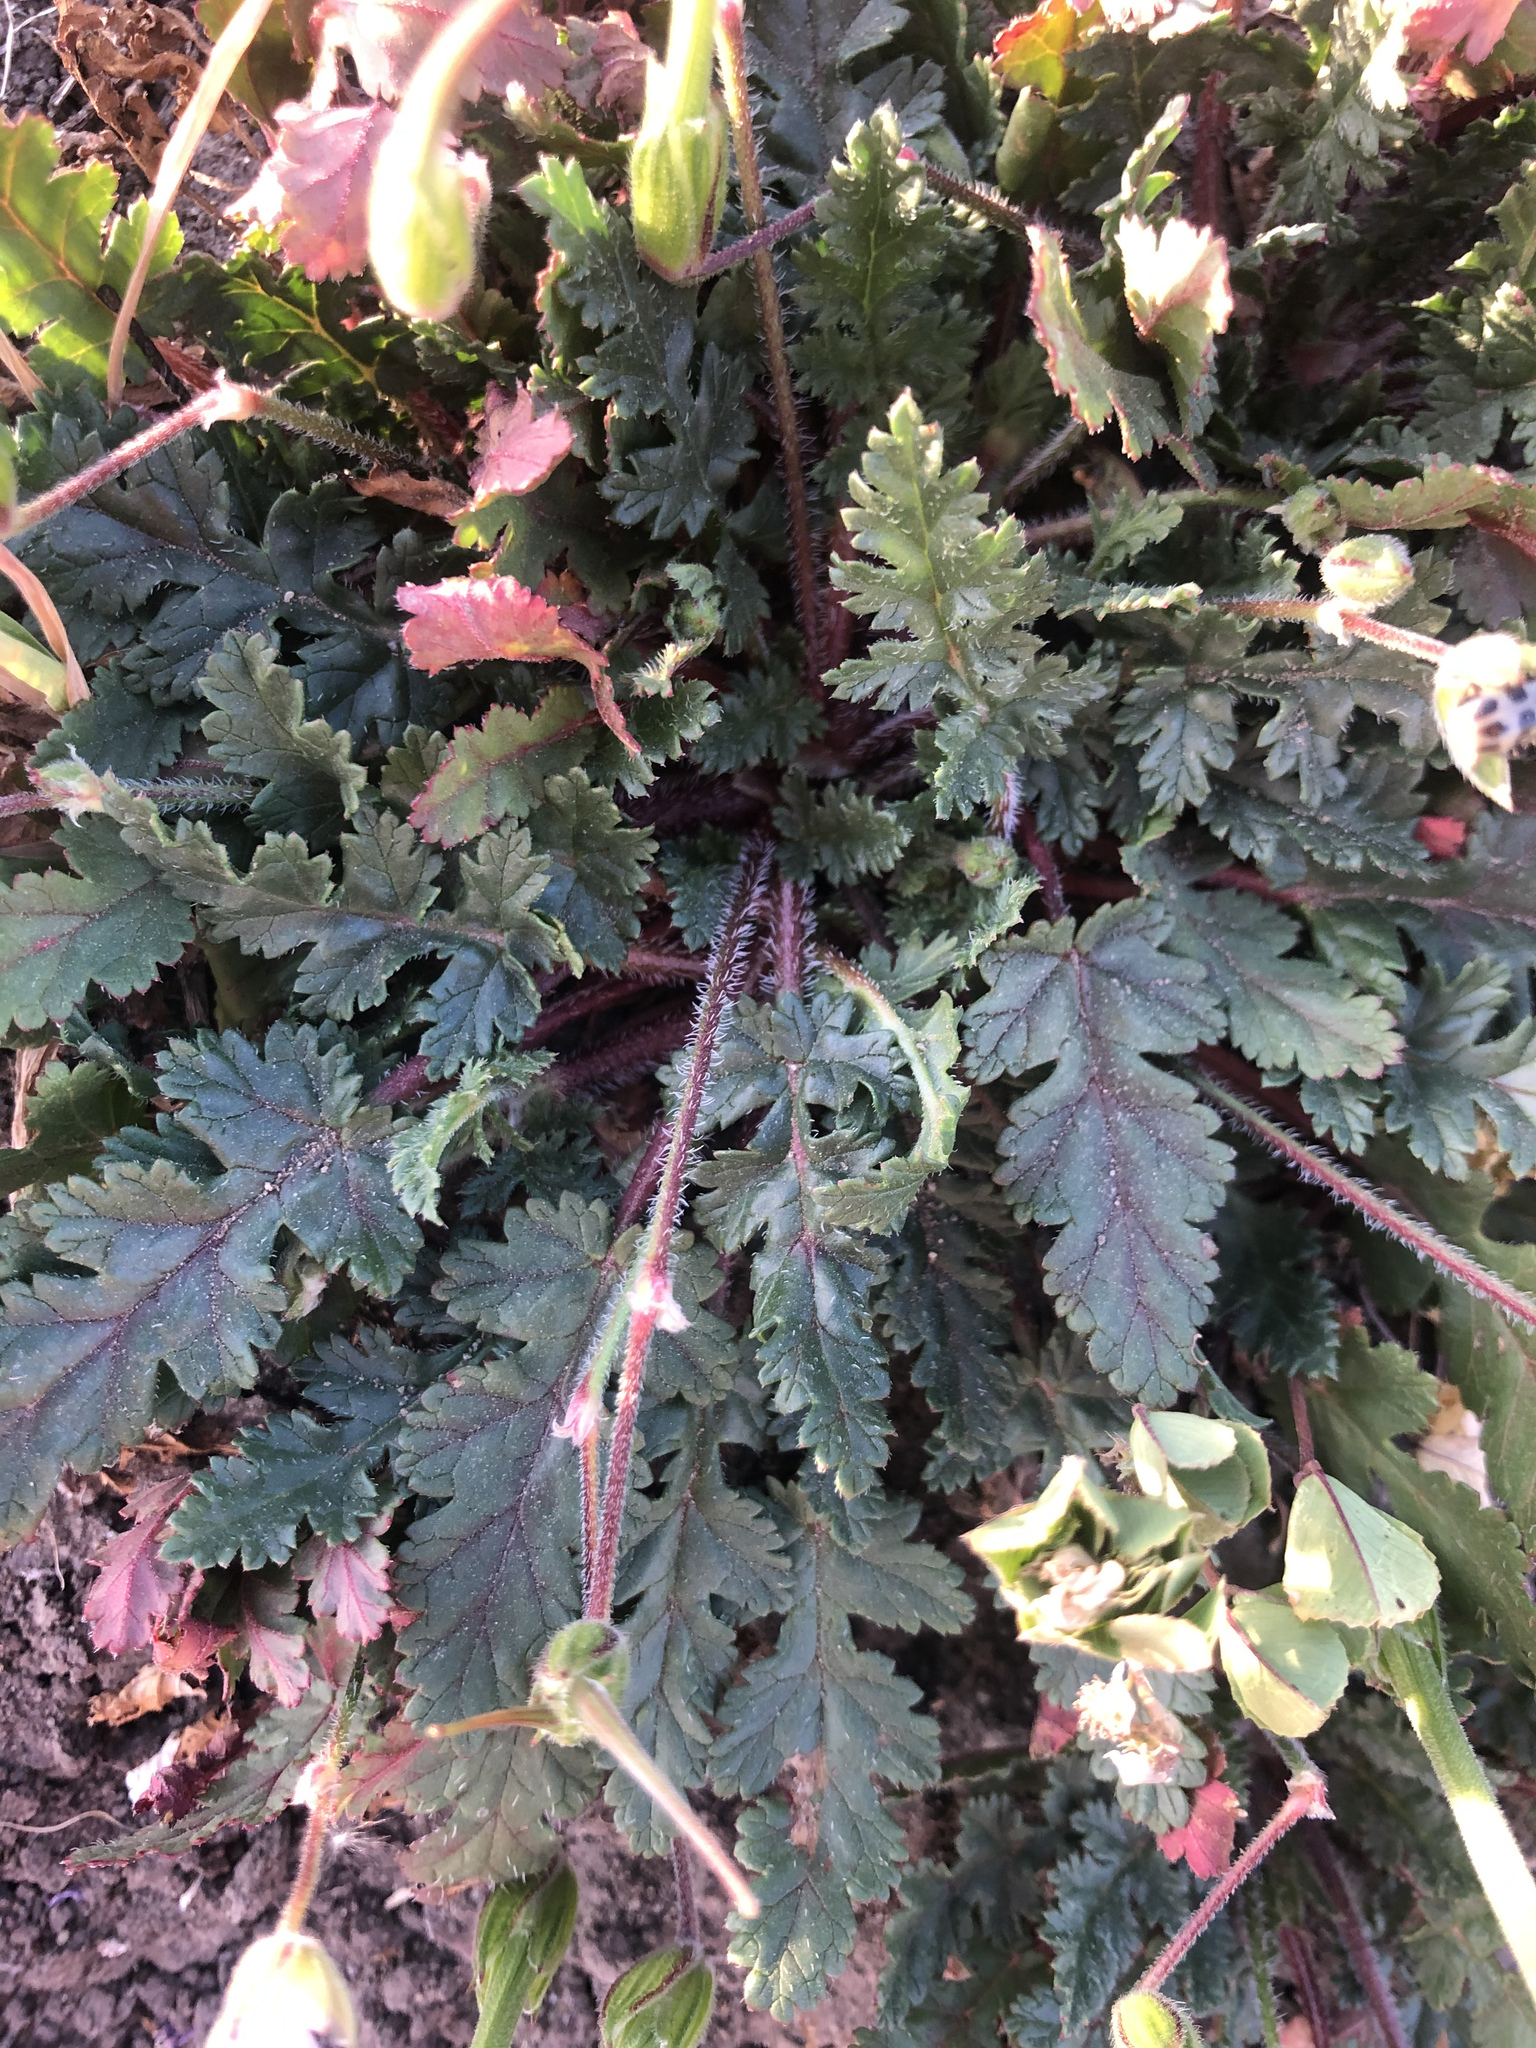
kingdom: Plantae
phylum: Tracheophyta
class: Magnoliopsida
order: Geraniales
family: Geraniaceae
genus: Erodium
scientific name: Erodium botrys
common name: Mediterranean stork's-bill
